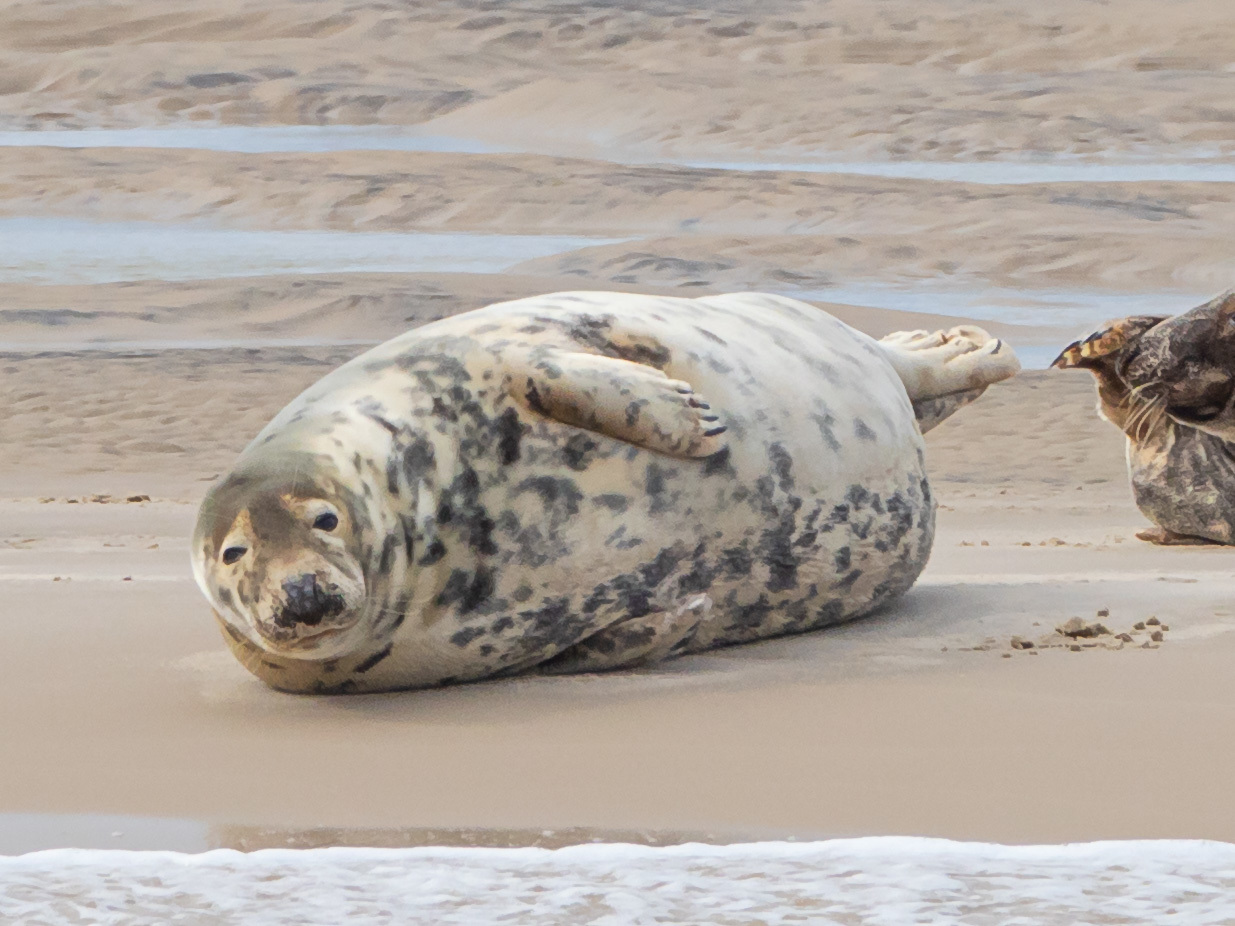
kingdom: Animalia
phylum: Chordata
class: Mammalia
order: Carnivora
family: Phocidae
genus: Halichoerus
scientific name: Halichoerus grypus
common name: Grey seal
